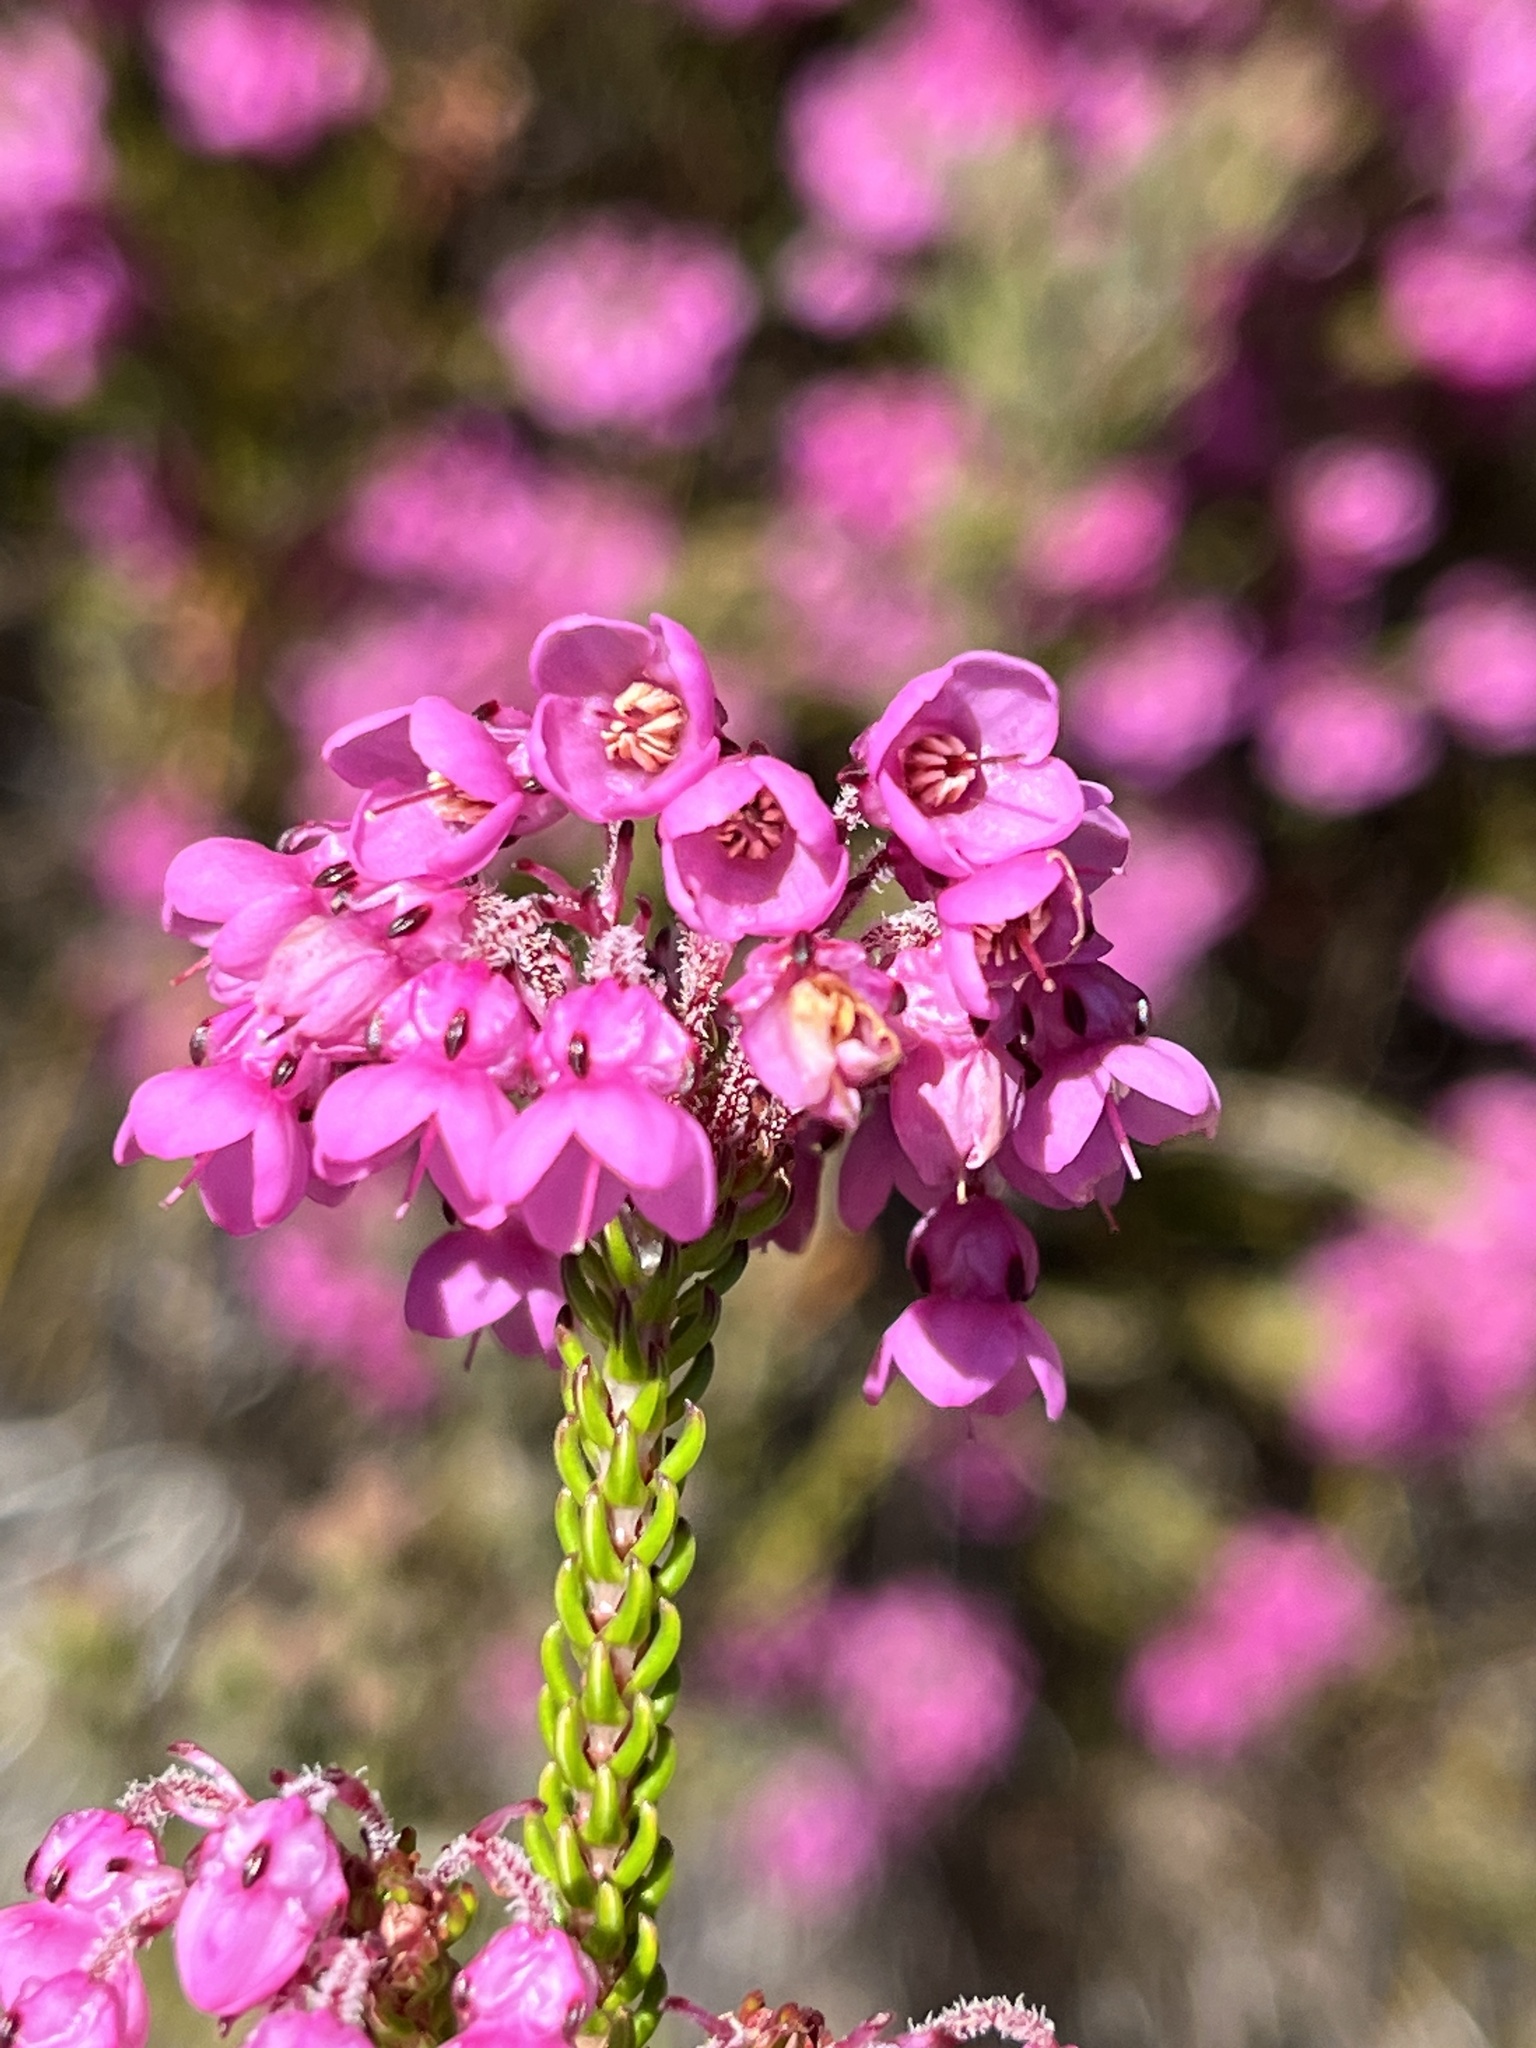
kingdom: Plantae
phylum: Tracheophyta
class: Magnoliopsida
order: Ericales
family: Ericaceae
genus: Erica
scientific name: Erica cubica
